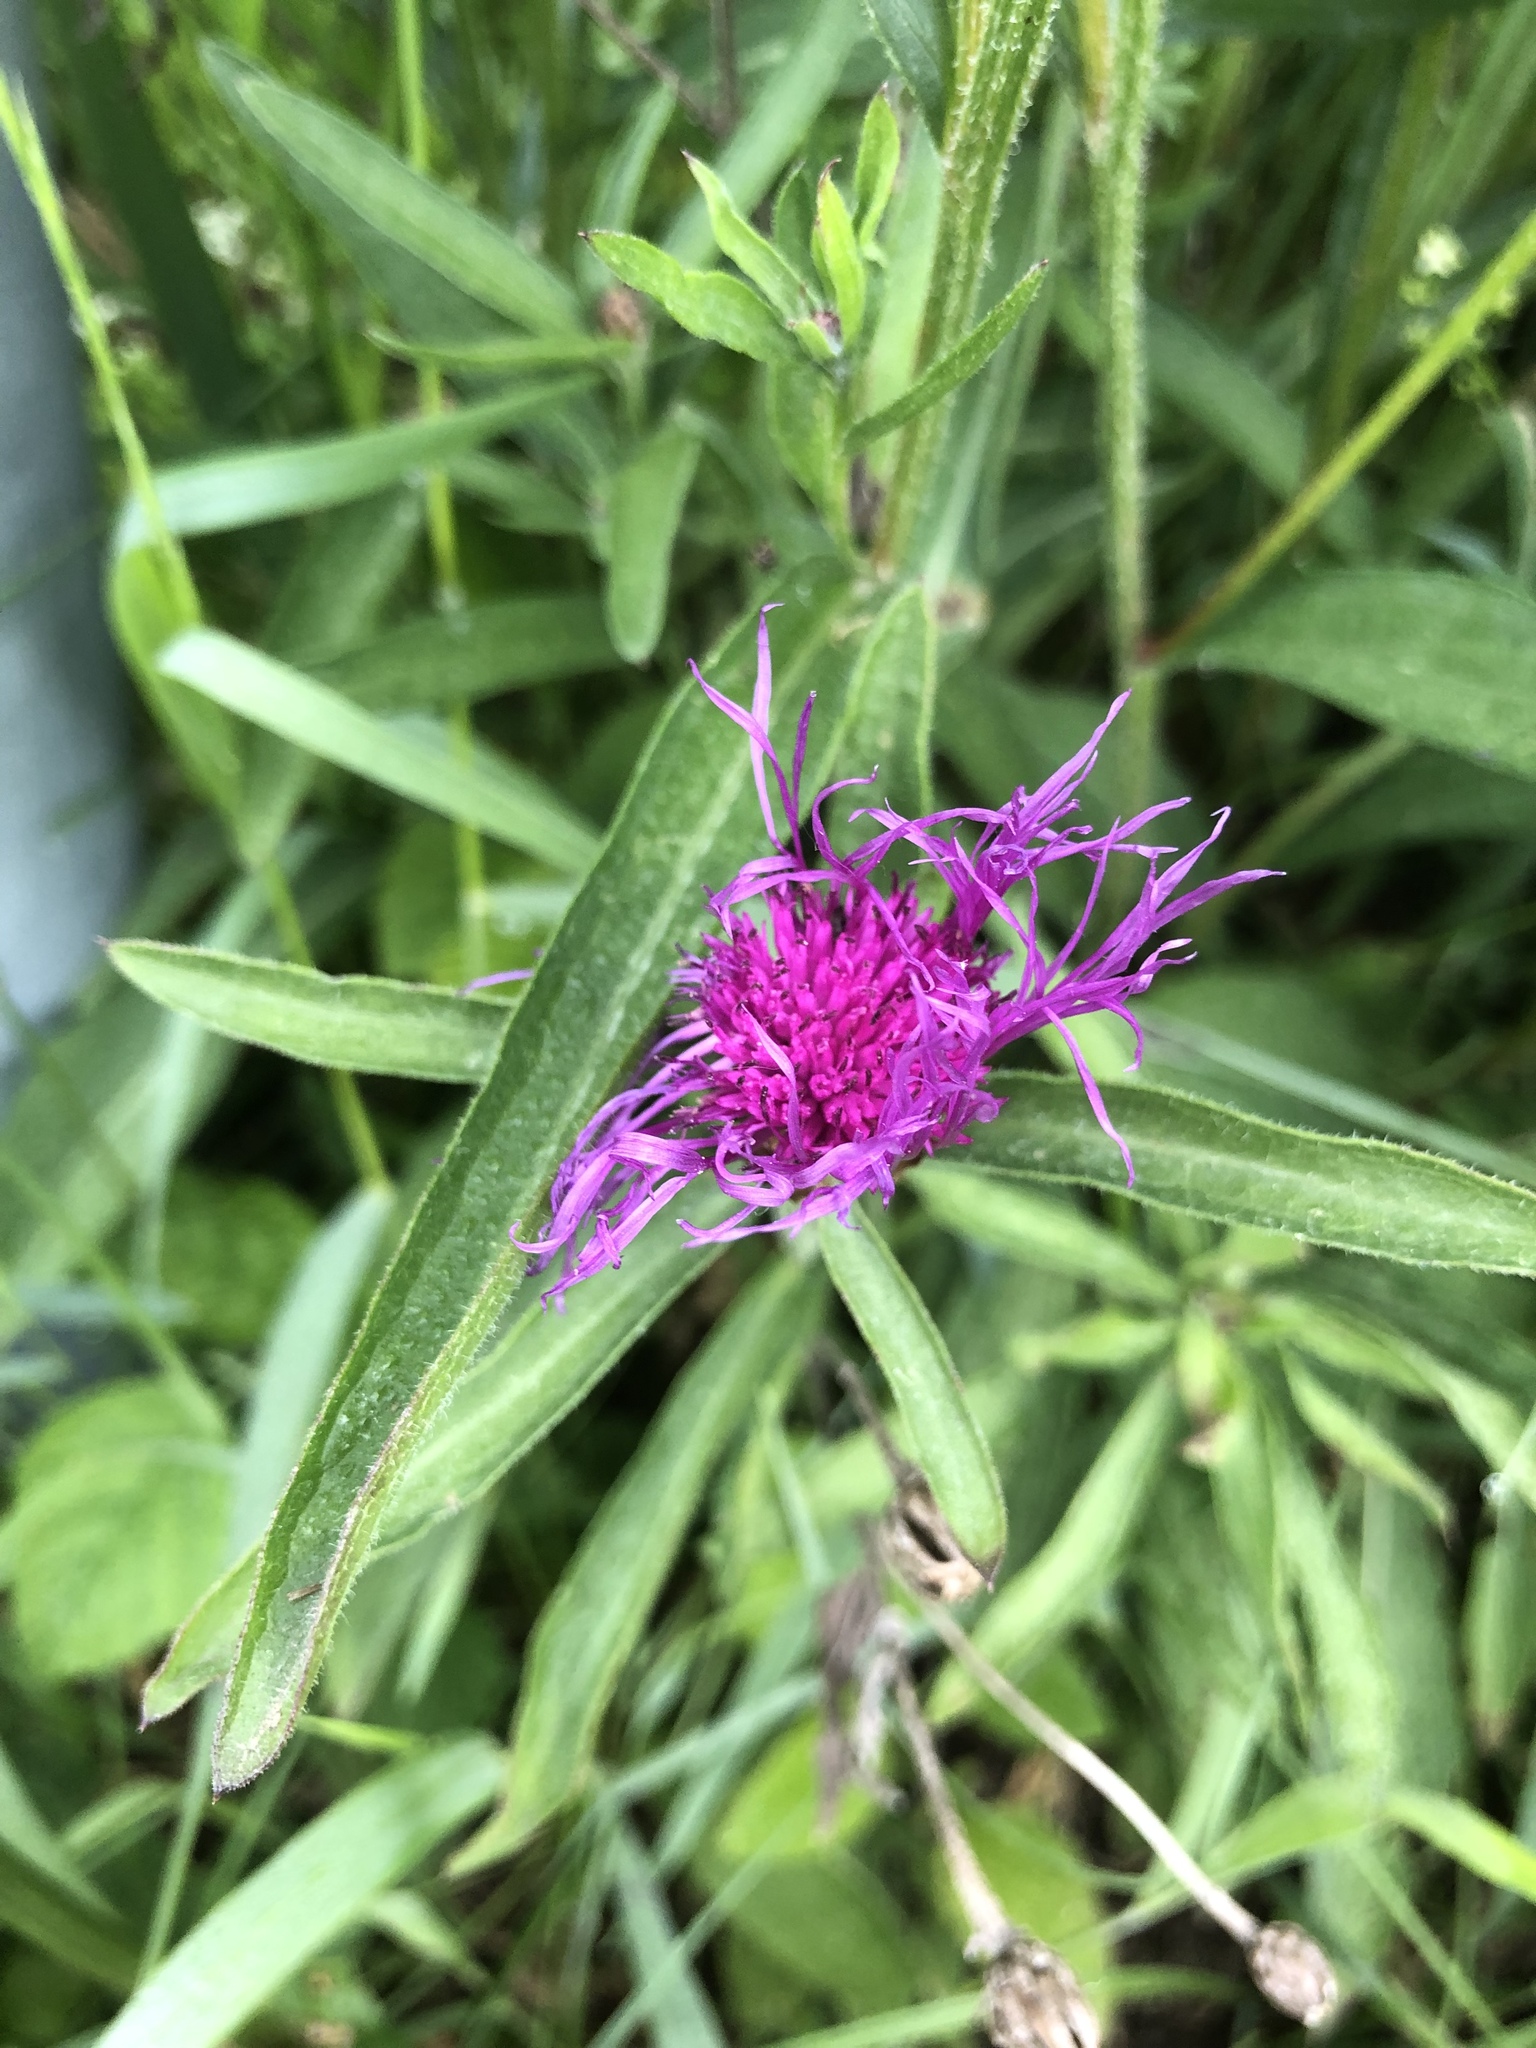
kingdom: Plantae
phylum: Tracheophyta
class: Magnoliopsida
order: Asterales
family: Asteraceae
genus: Centaurea
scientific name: Centaurea jacea
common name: Brown knapweed
